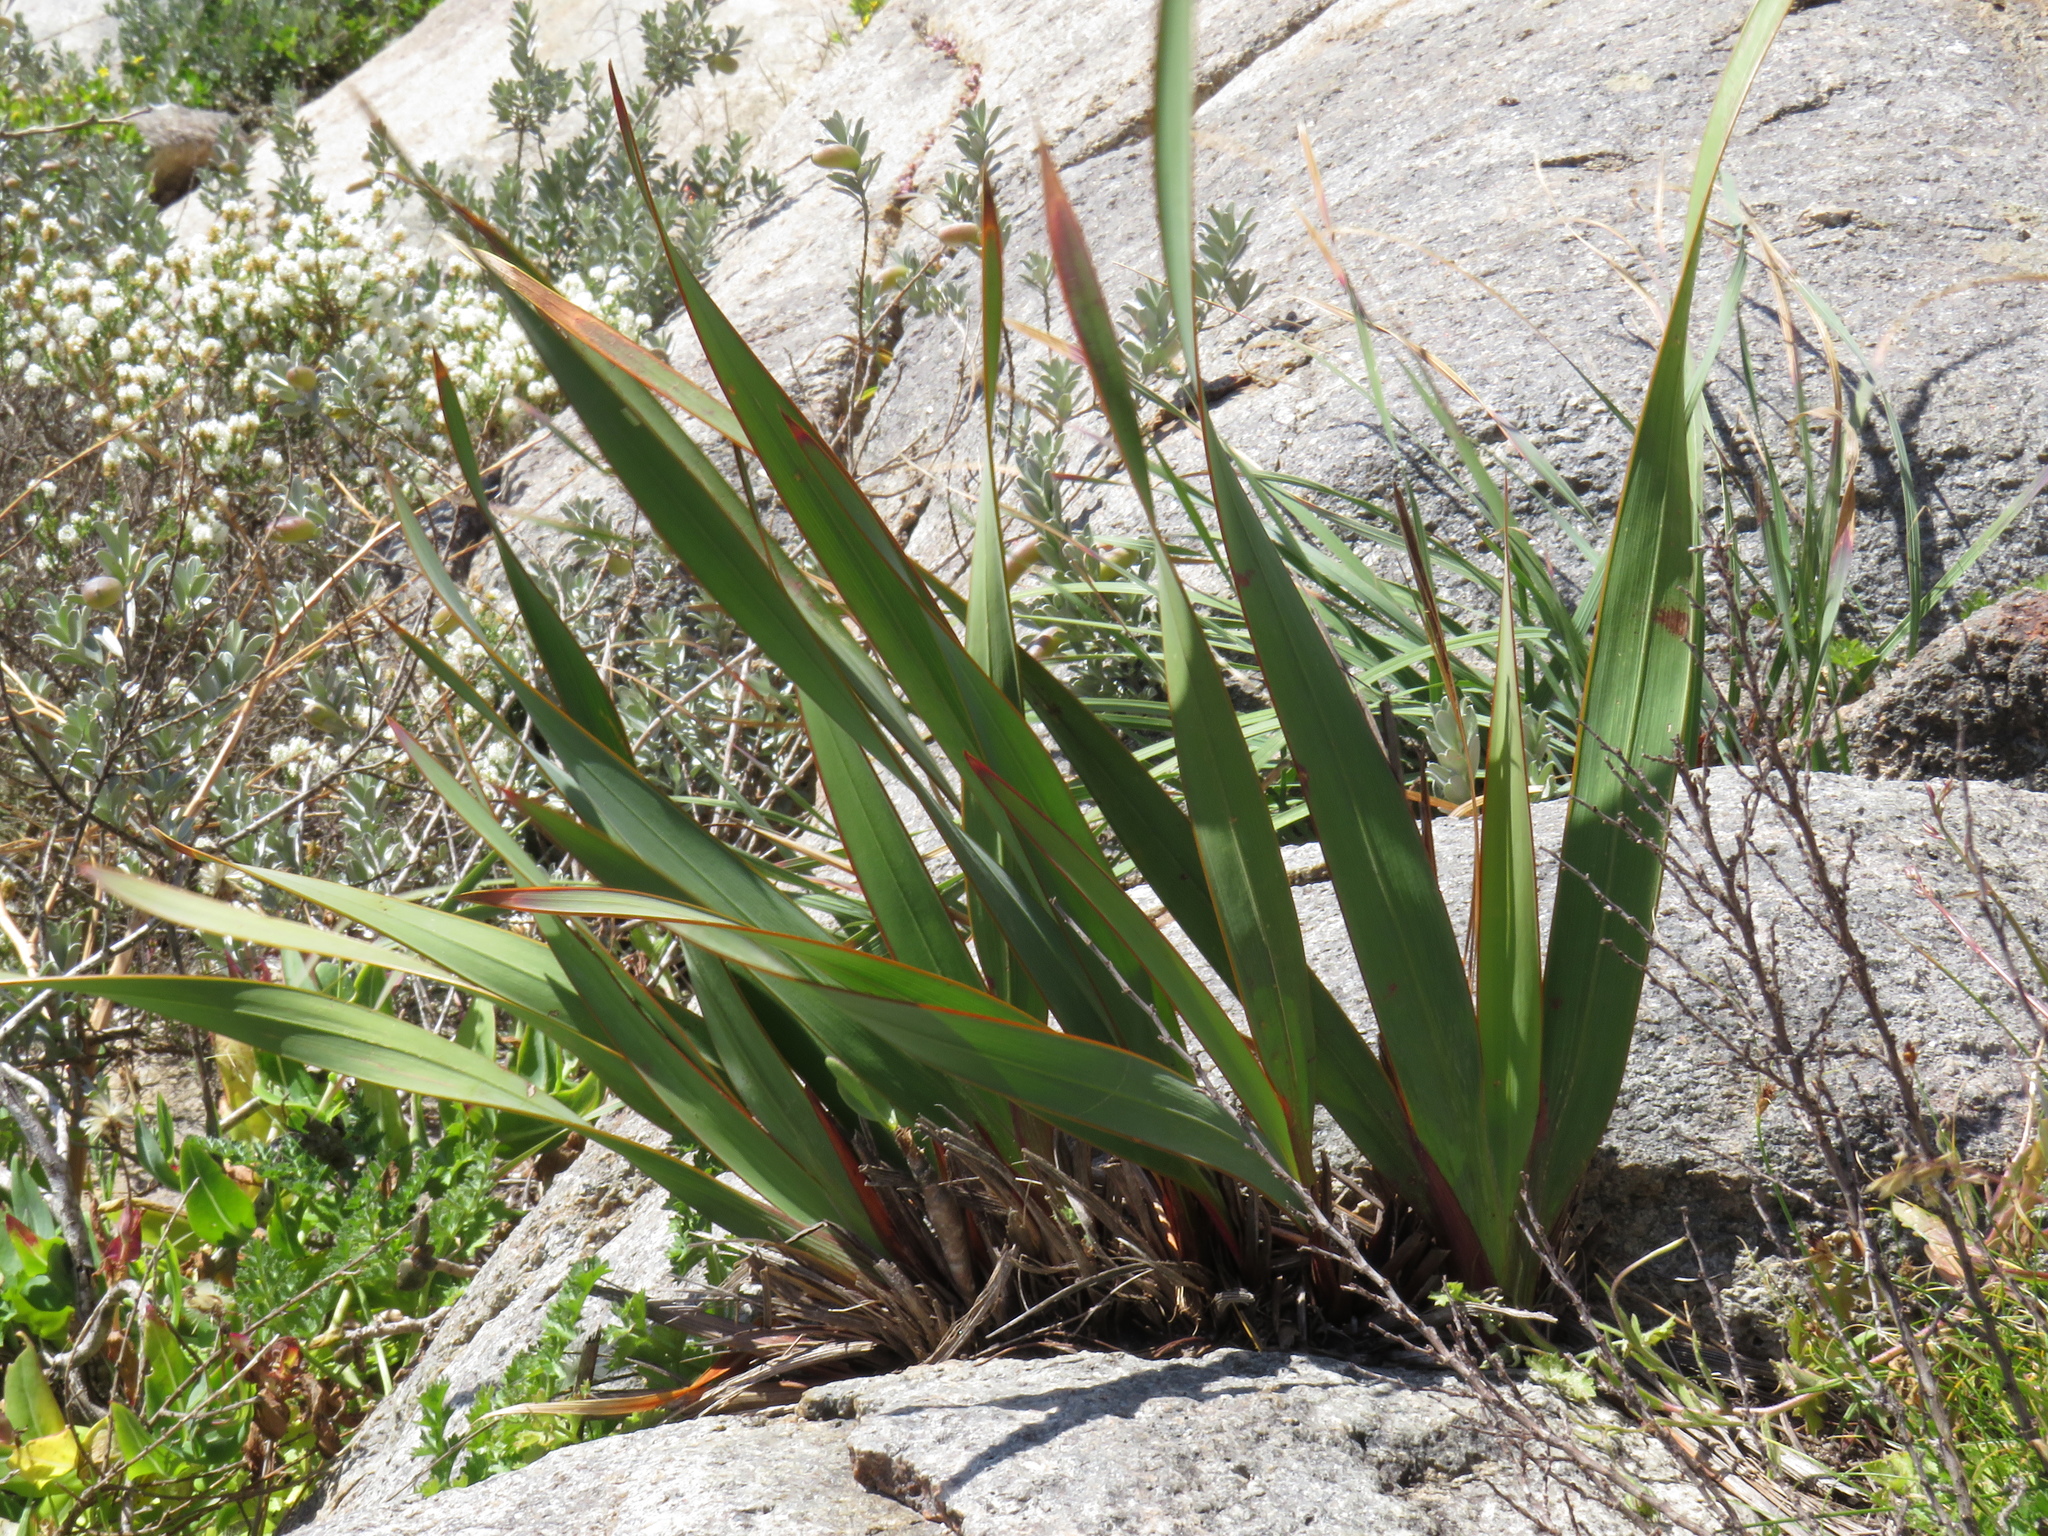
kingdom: Plantae
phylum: Tracheophyta
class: Liliopsida
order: Asparagales
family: Iridaceae
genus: Watsonia
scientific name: Watsonia hysterantha
